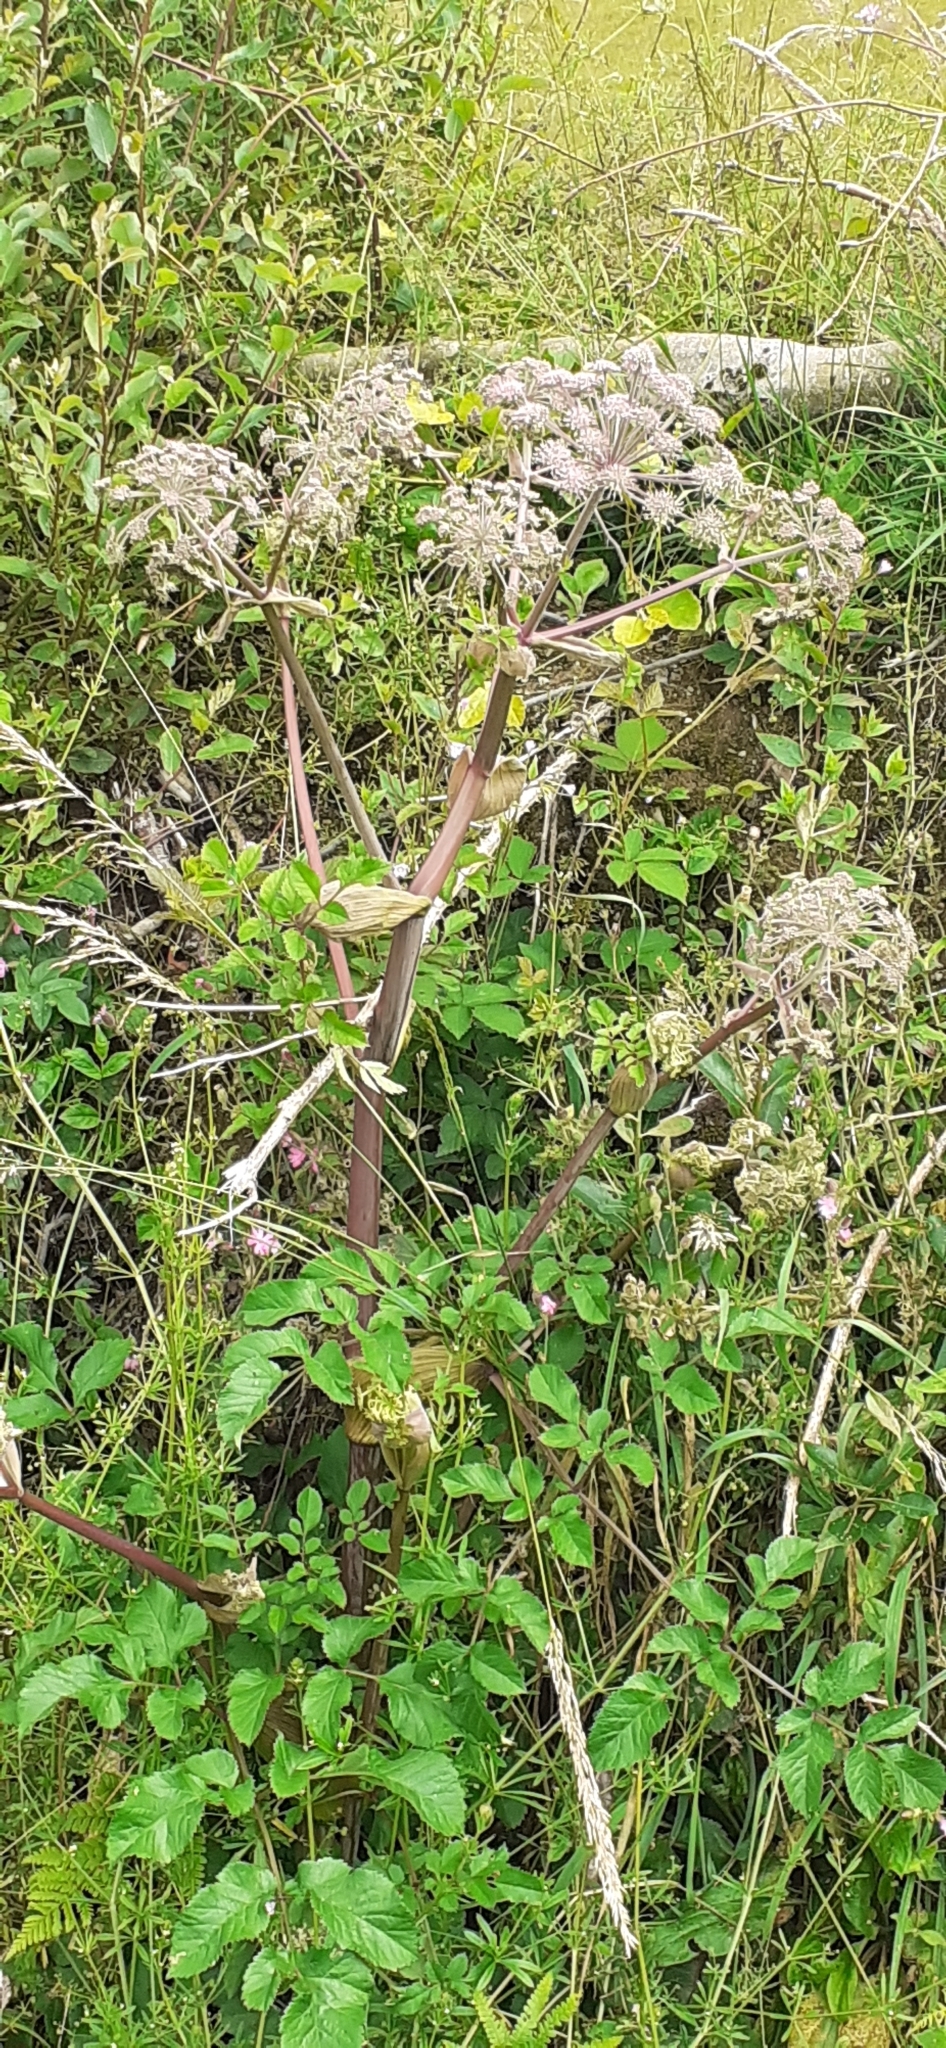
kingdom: Plantae
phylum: Tracheophyta
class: Magnoliopsida
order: Apiales
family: Apiaceae
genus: Angelica
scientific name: Angelica sylvestris
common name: Wild angelica
